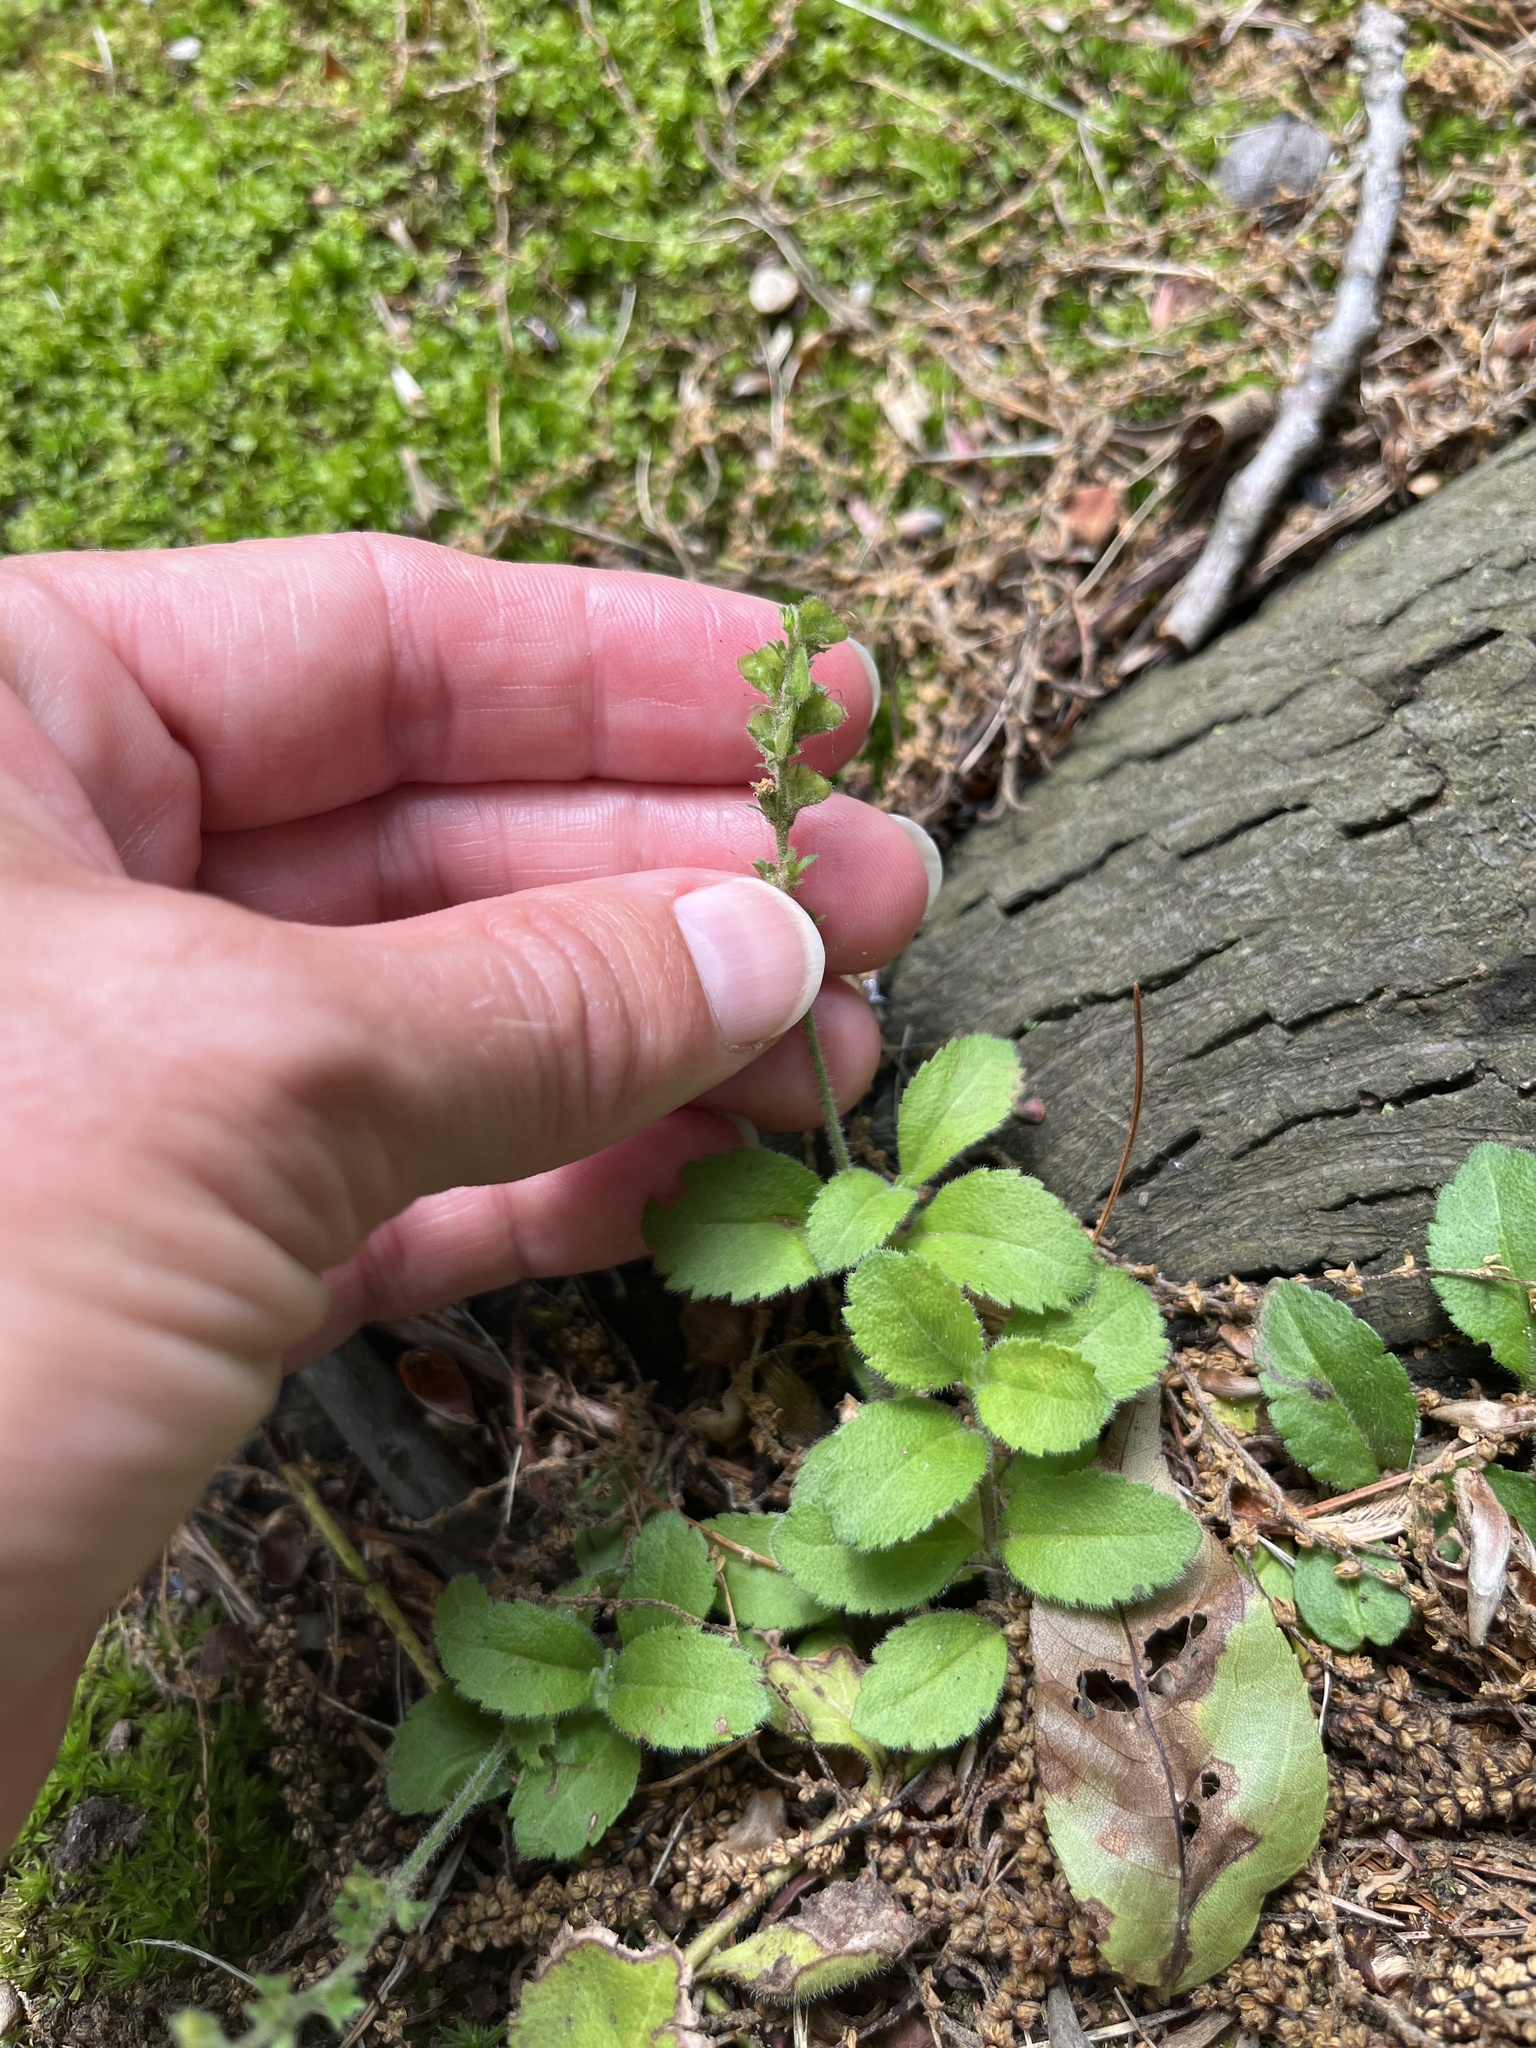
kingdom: Plantae
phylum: Tracheophyta
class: Magnoliopsida
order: Lamiales
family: Plantaginaceae
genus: Veronica
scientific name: Veronica officinalis
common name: Common speedwell
